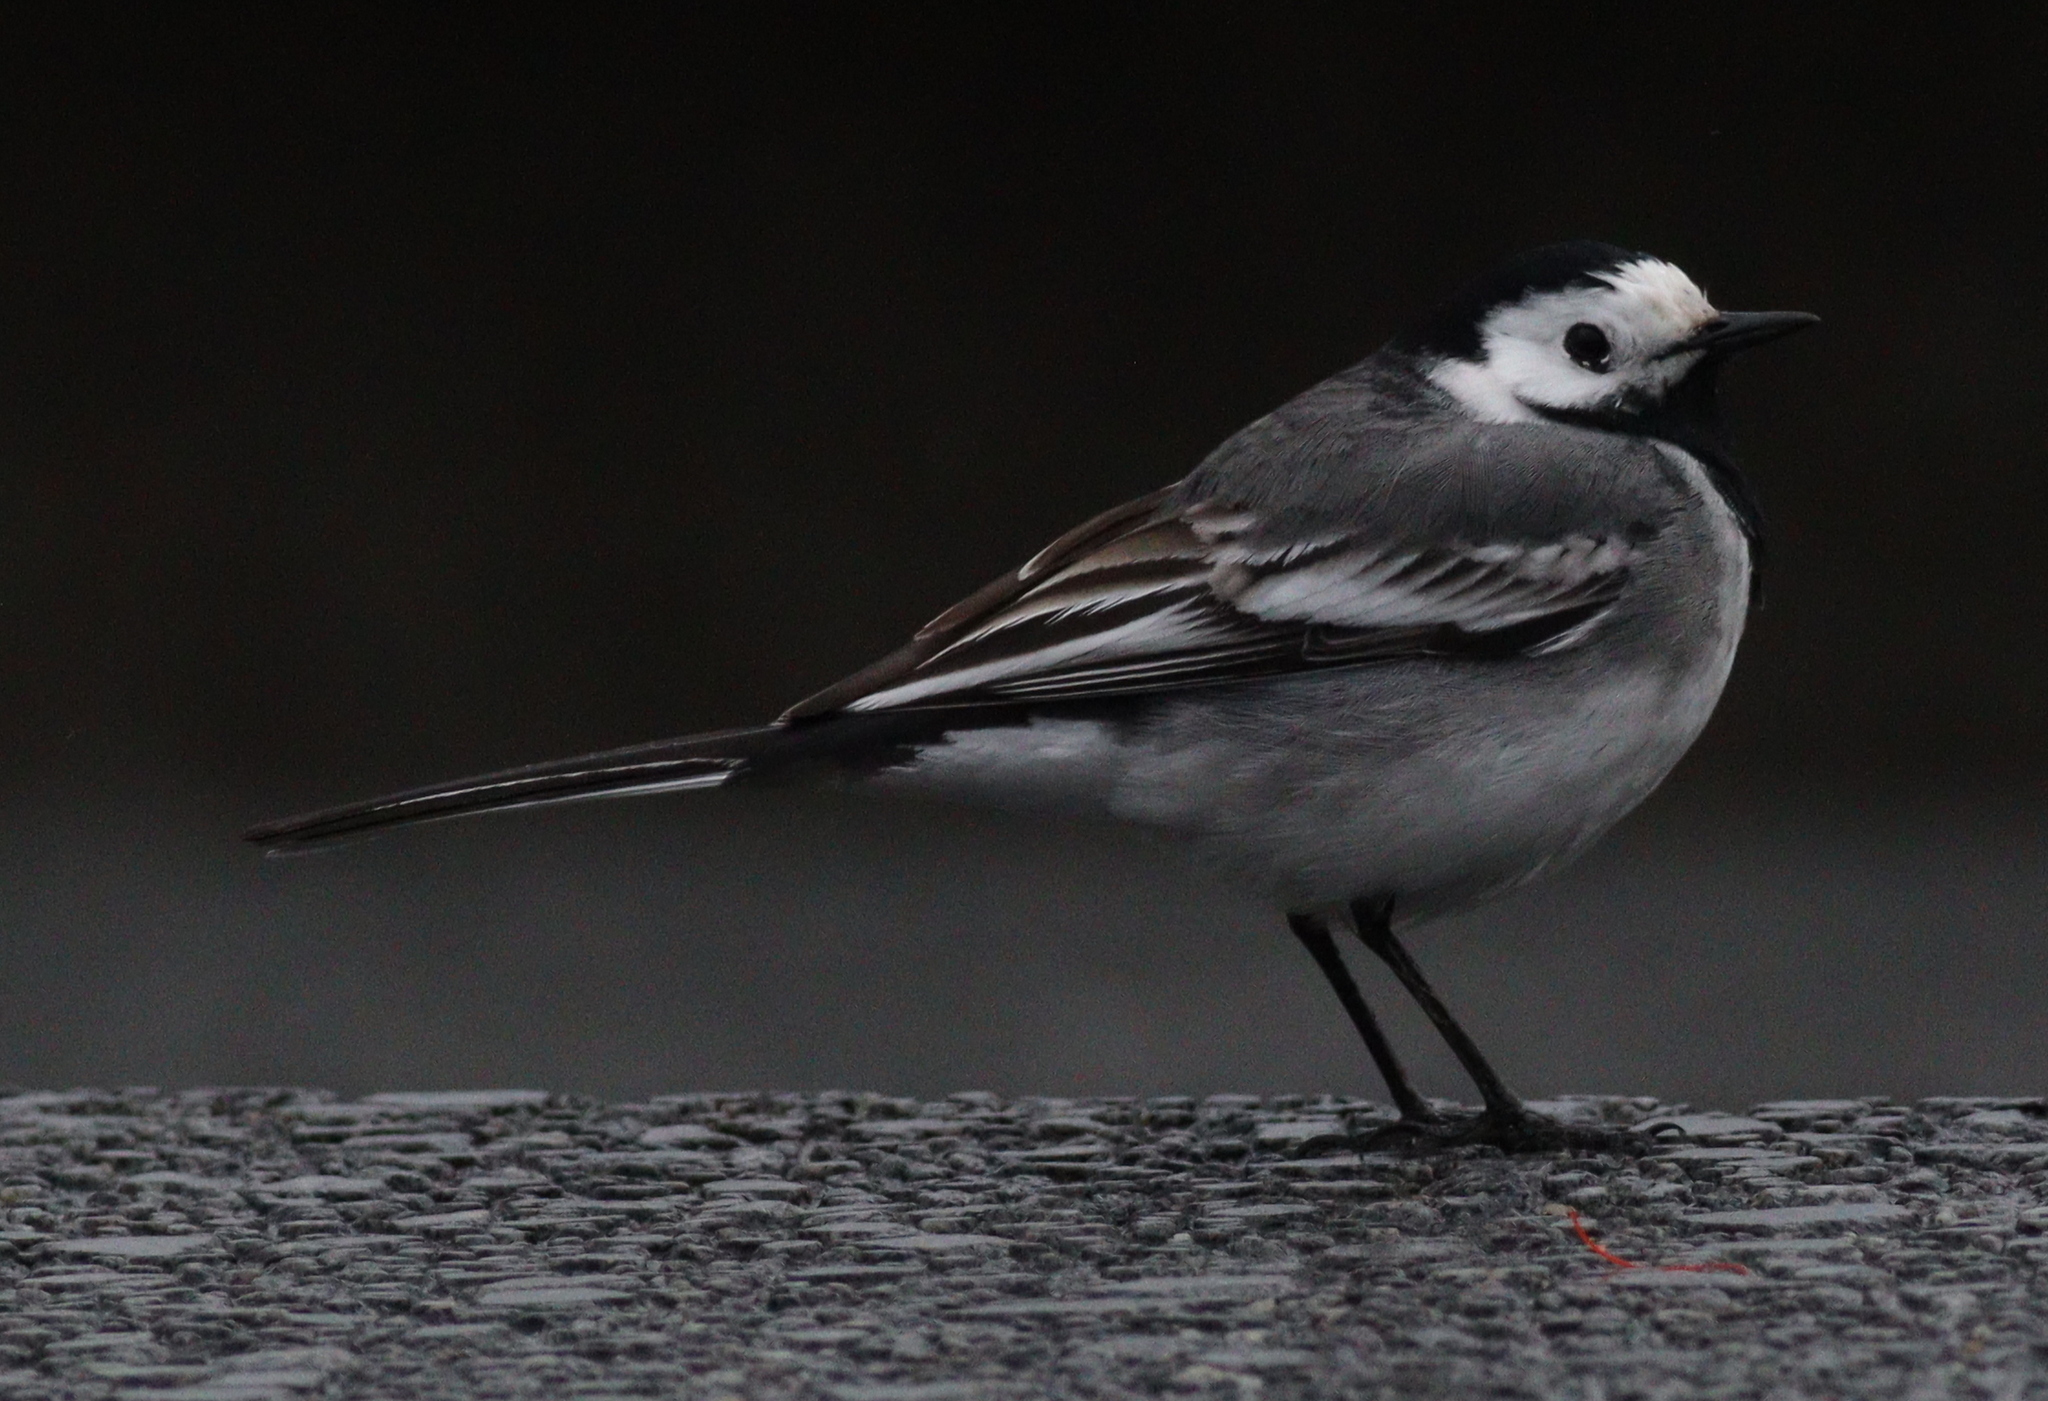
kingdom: Animalia
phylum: Chordata
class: Aves
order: Passeriformes
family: Motacillidae
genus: Motacilla
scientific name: Motacilla alba
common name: White wagtail
